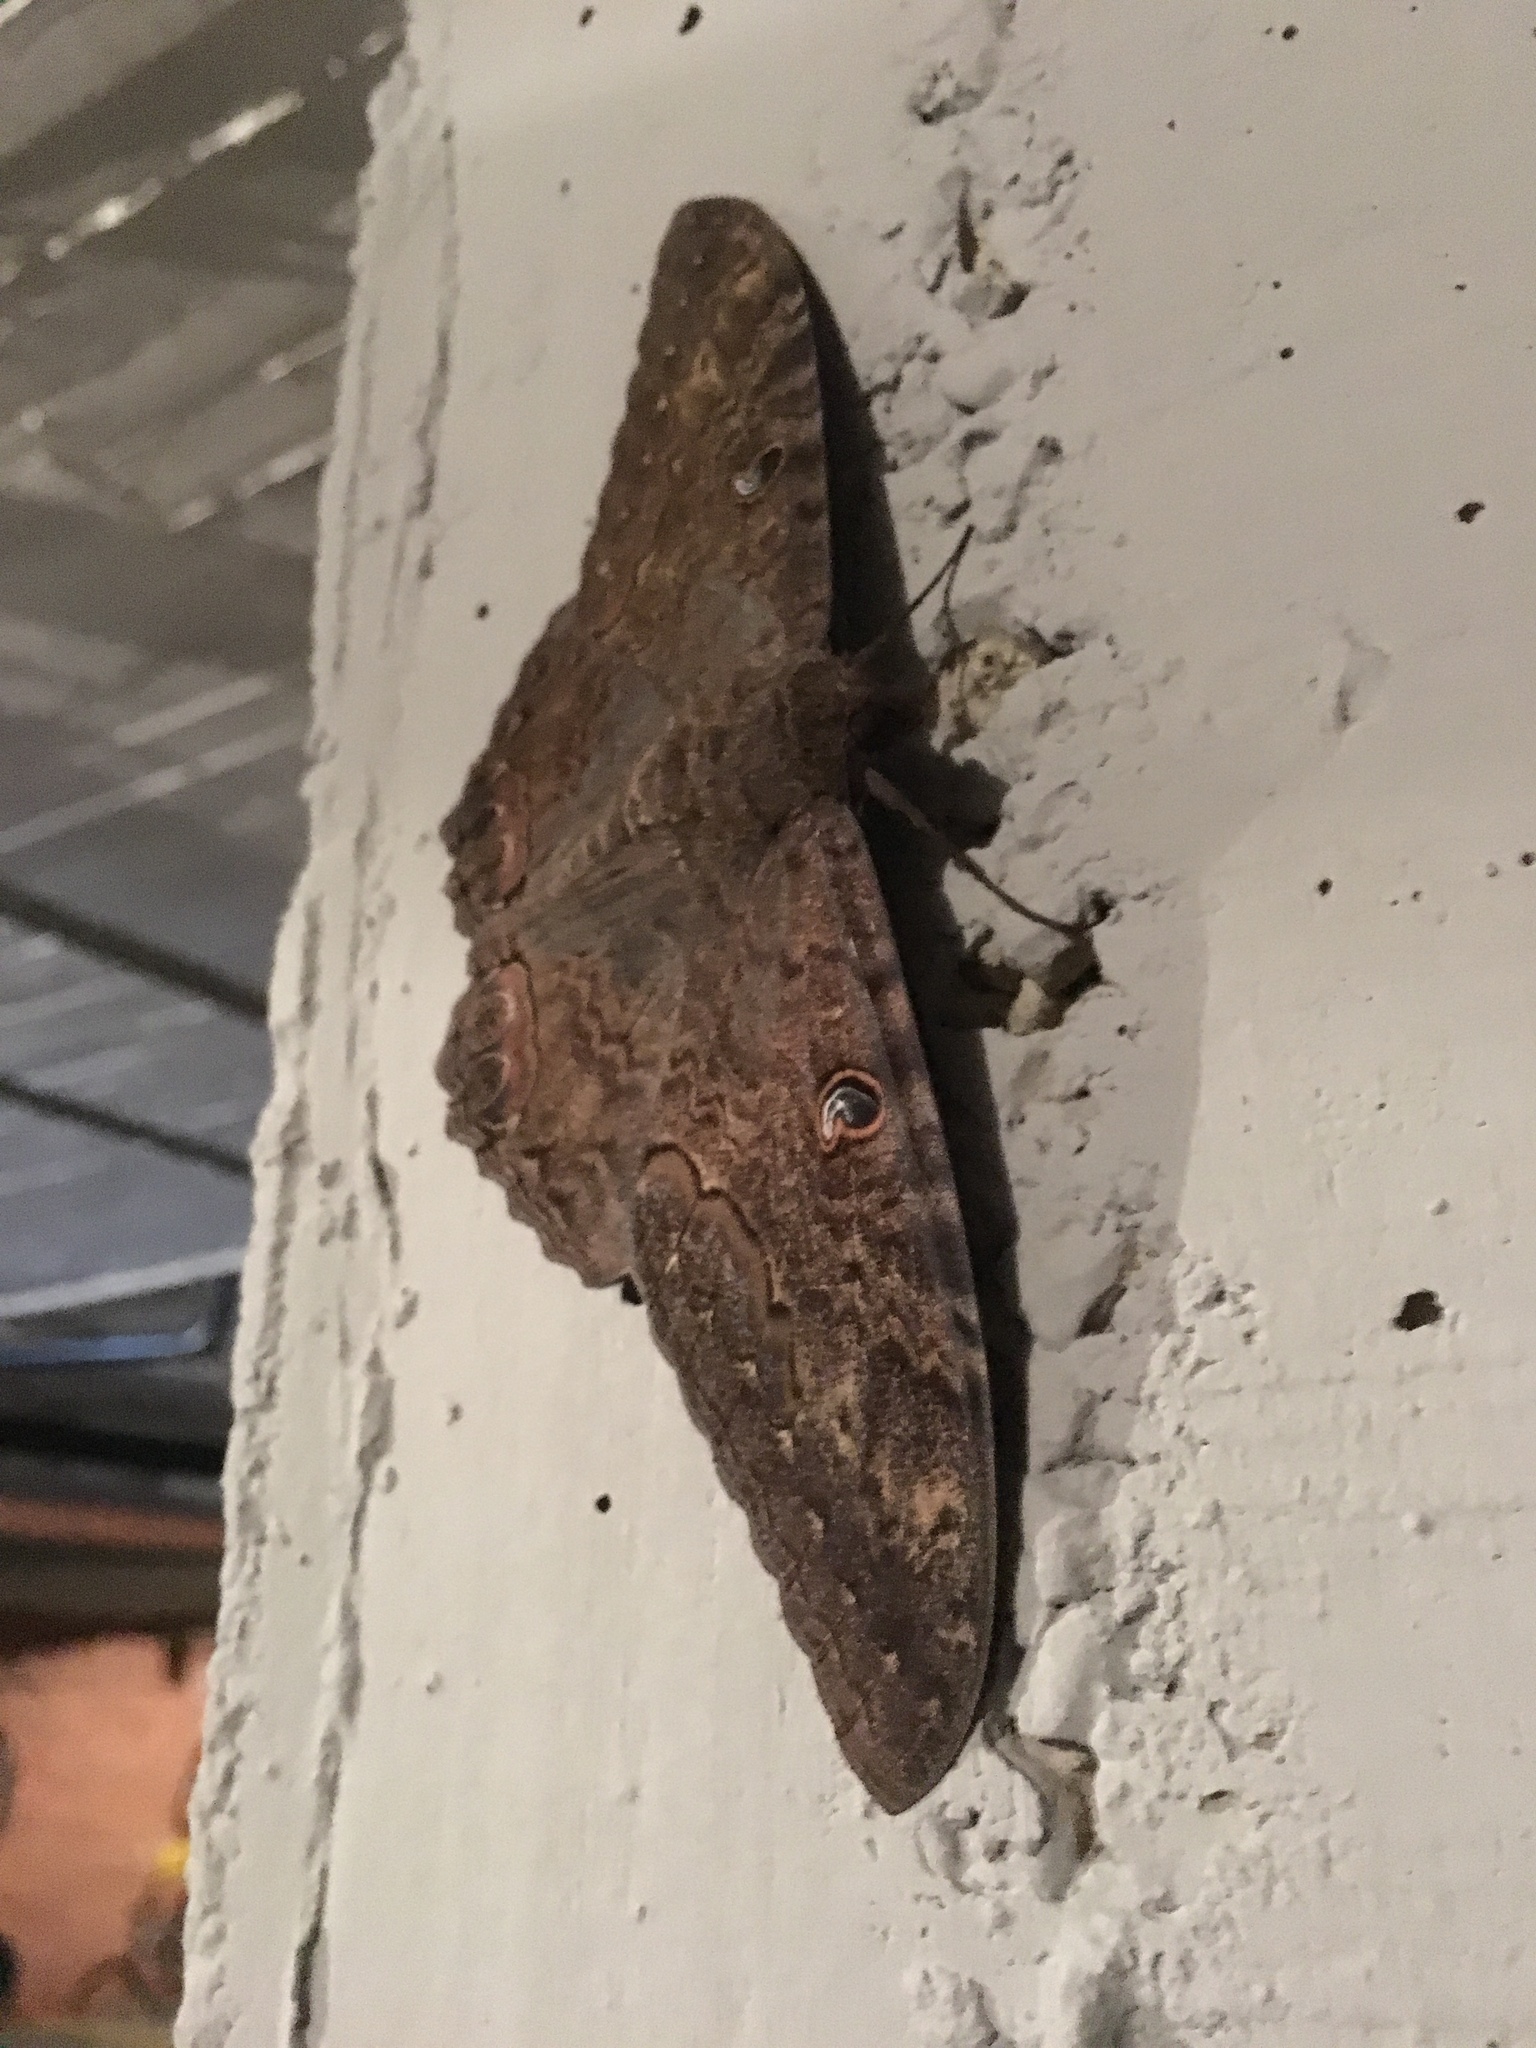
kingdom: Animalia
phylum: Arthropoda
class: Insecta
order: Lepidoptera
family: Erebidae
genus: Ascalapha
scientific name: Ascalapha odorata
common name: Black witch
